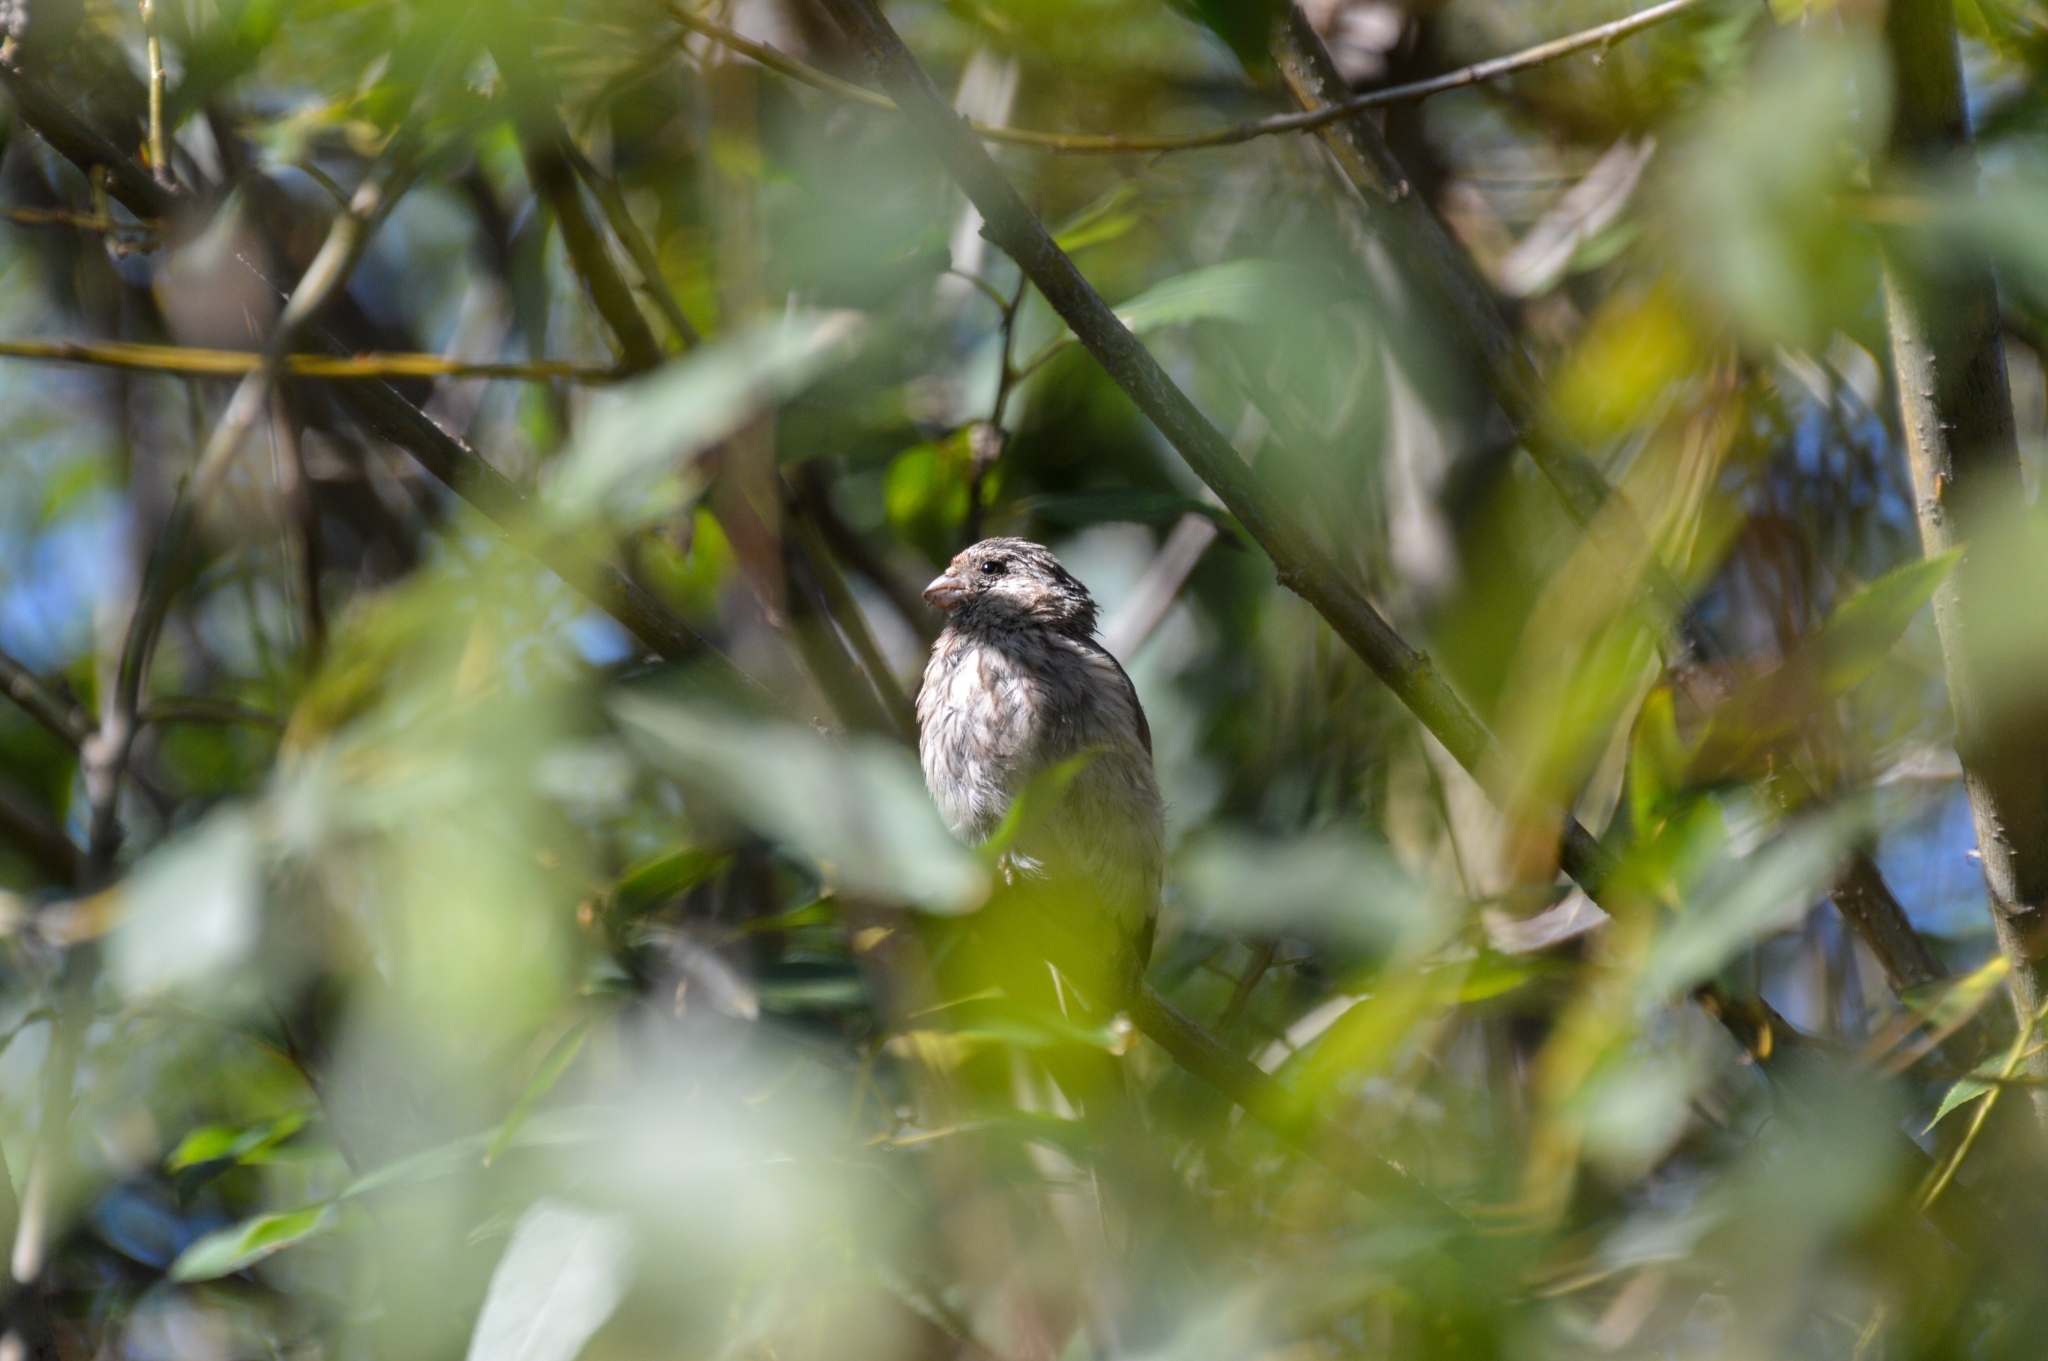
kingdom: Animalia
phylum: Chordata
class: Aves
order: Passeriformes
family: Fringillidae
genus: Carpodacus
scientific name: Carpodacus sibiricus
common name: Long-tailed rosefinch
